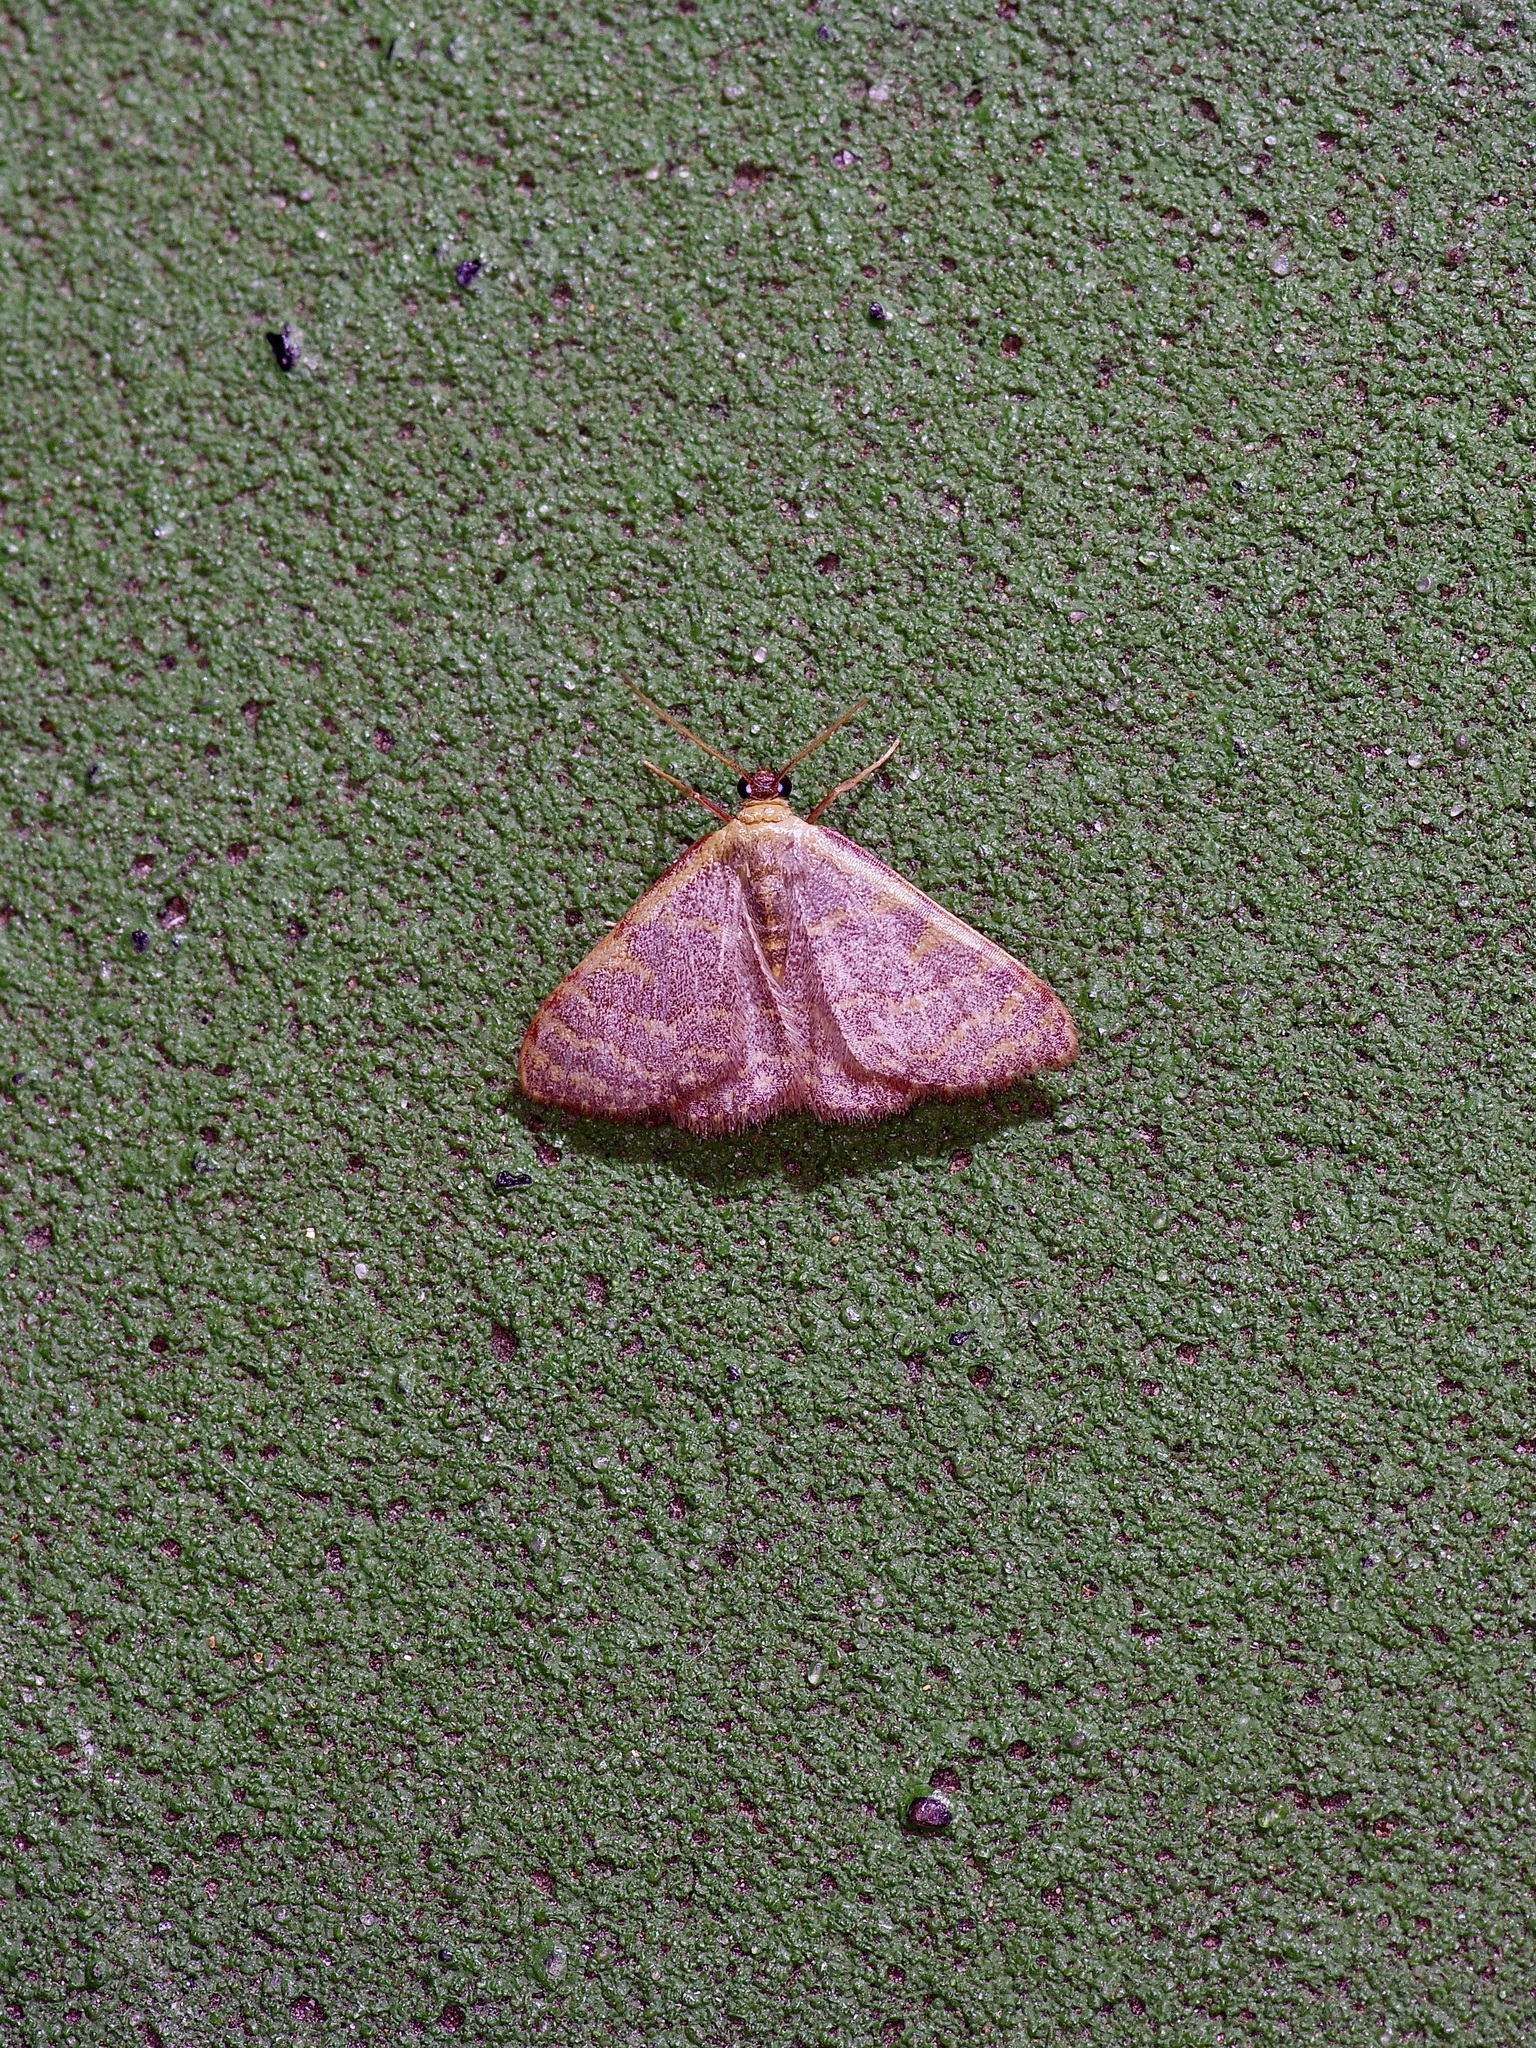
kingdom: Animalia
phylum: Arthropoda
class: Insecta
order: Lepidoptera
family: Geometridae
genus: Leptostales
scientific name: Leptostales pannaria
